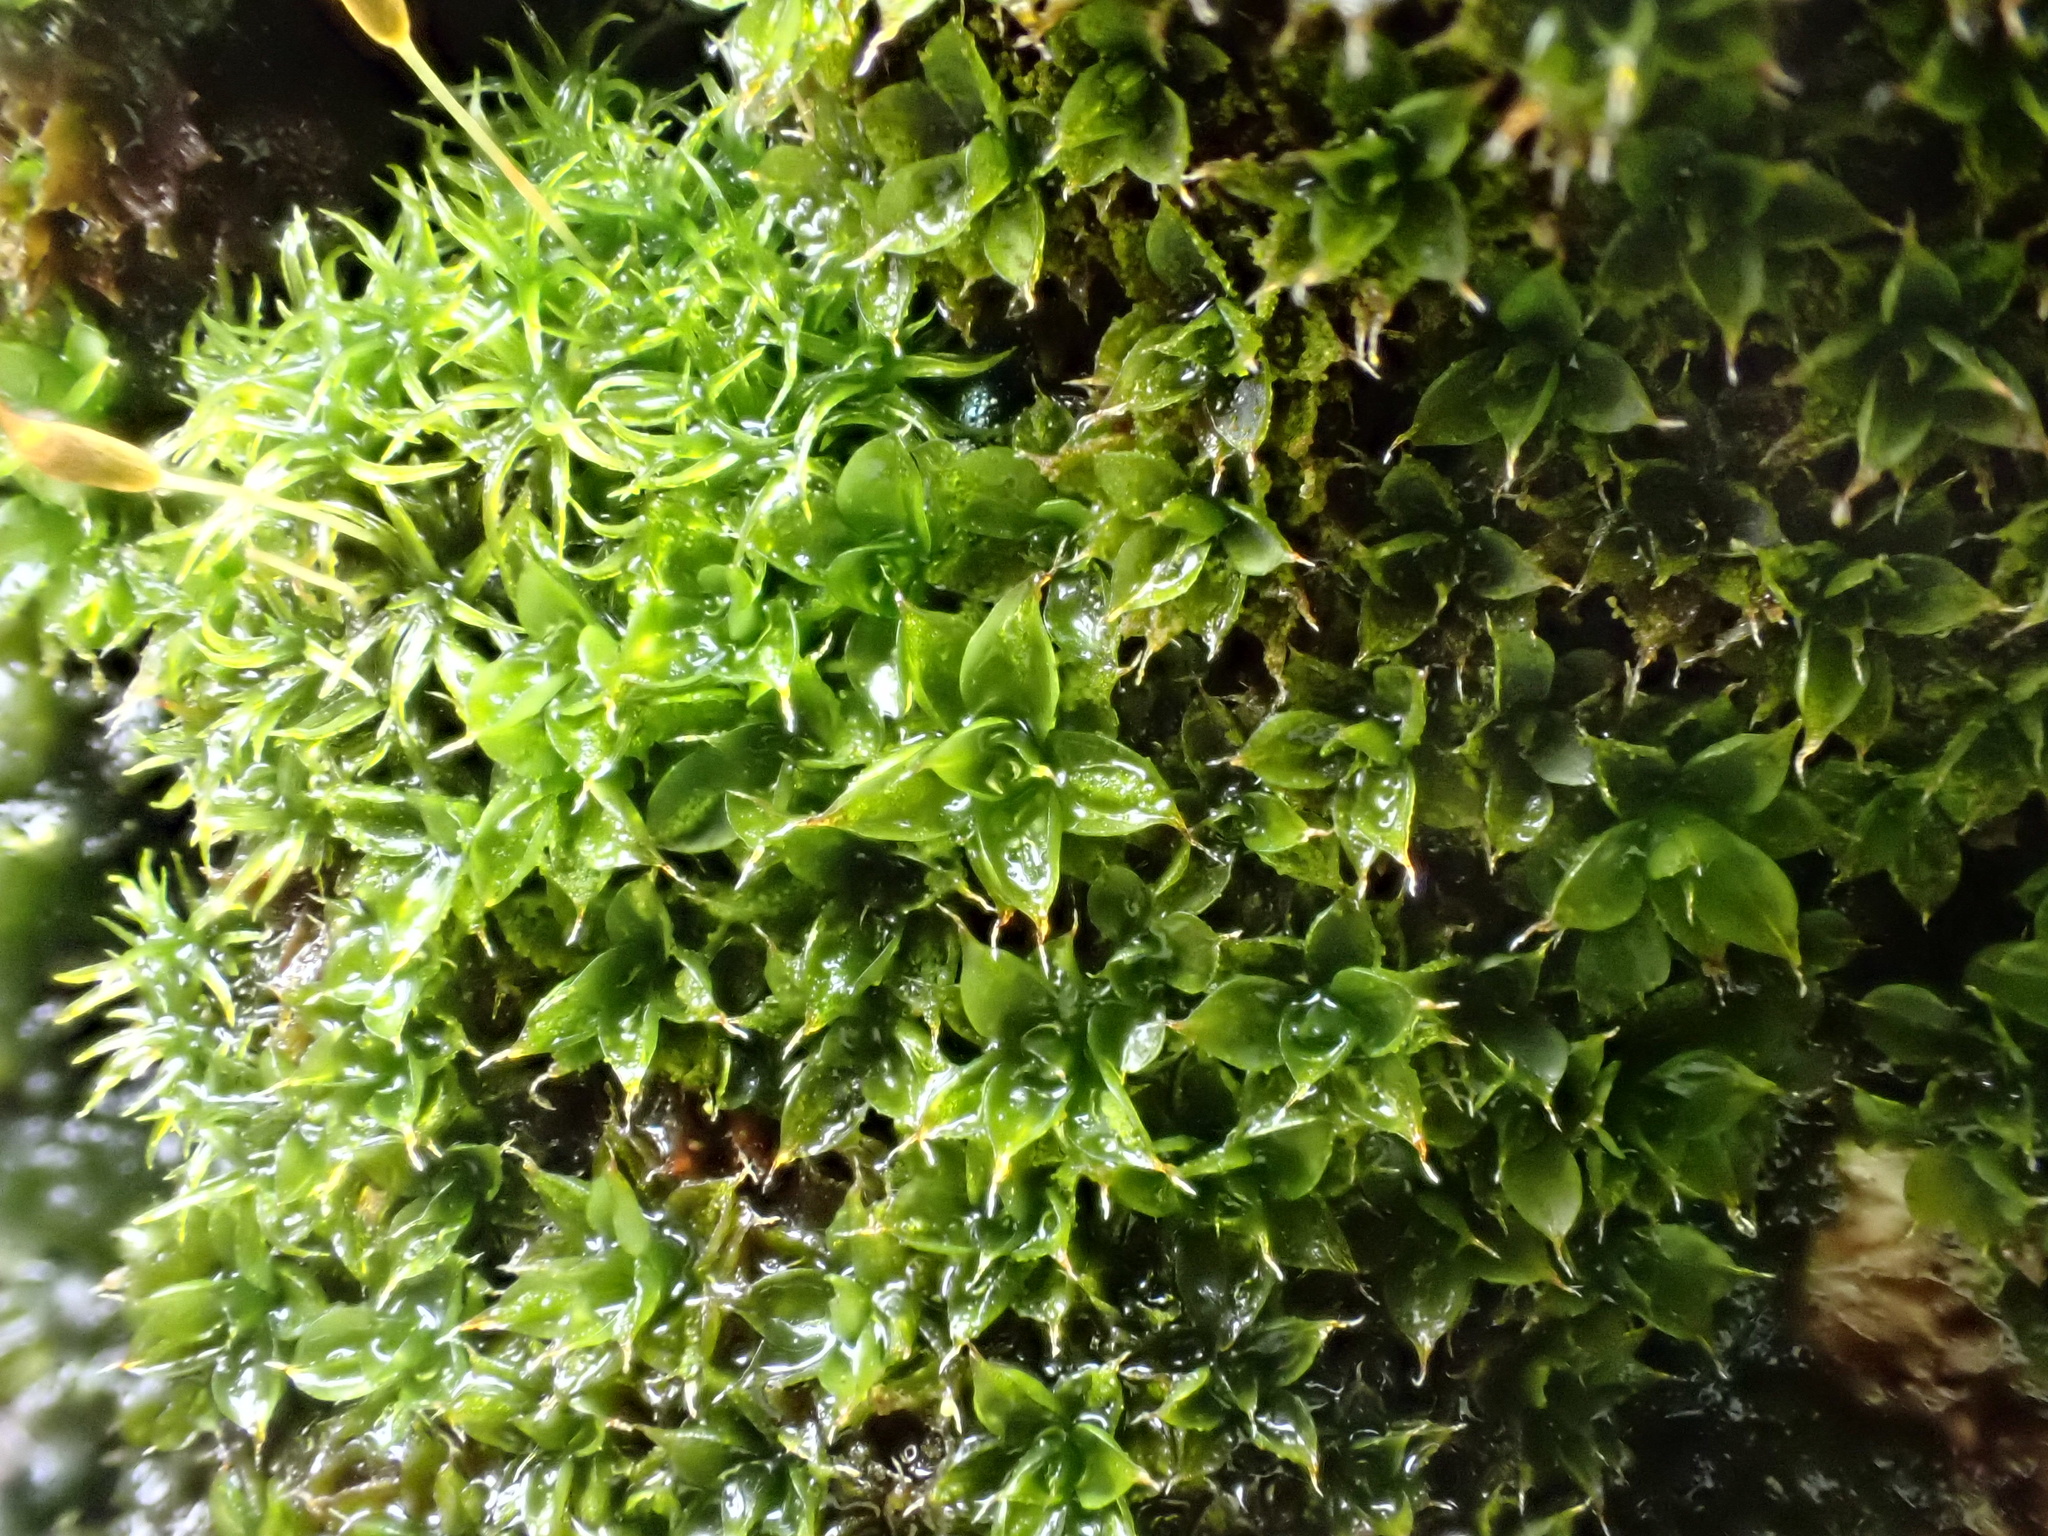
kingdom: Plantae
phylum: Bryophyta
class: Bryopsida
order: Pottiales
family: Pottiaceae
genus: Syntrichia
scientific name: Syntrichia papillosa
